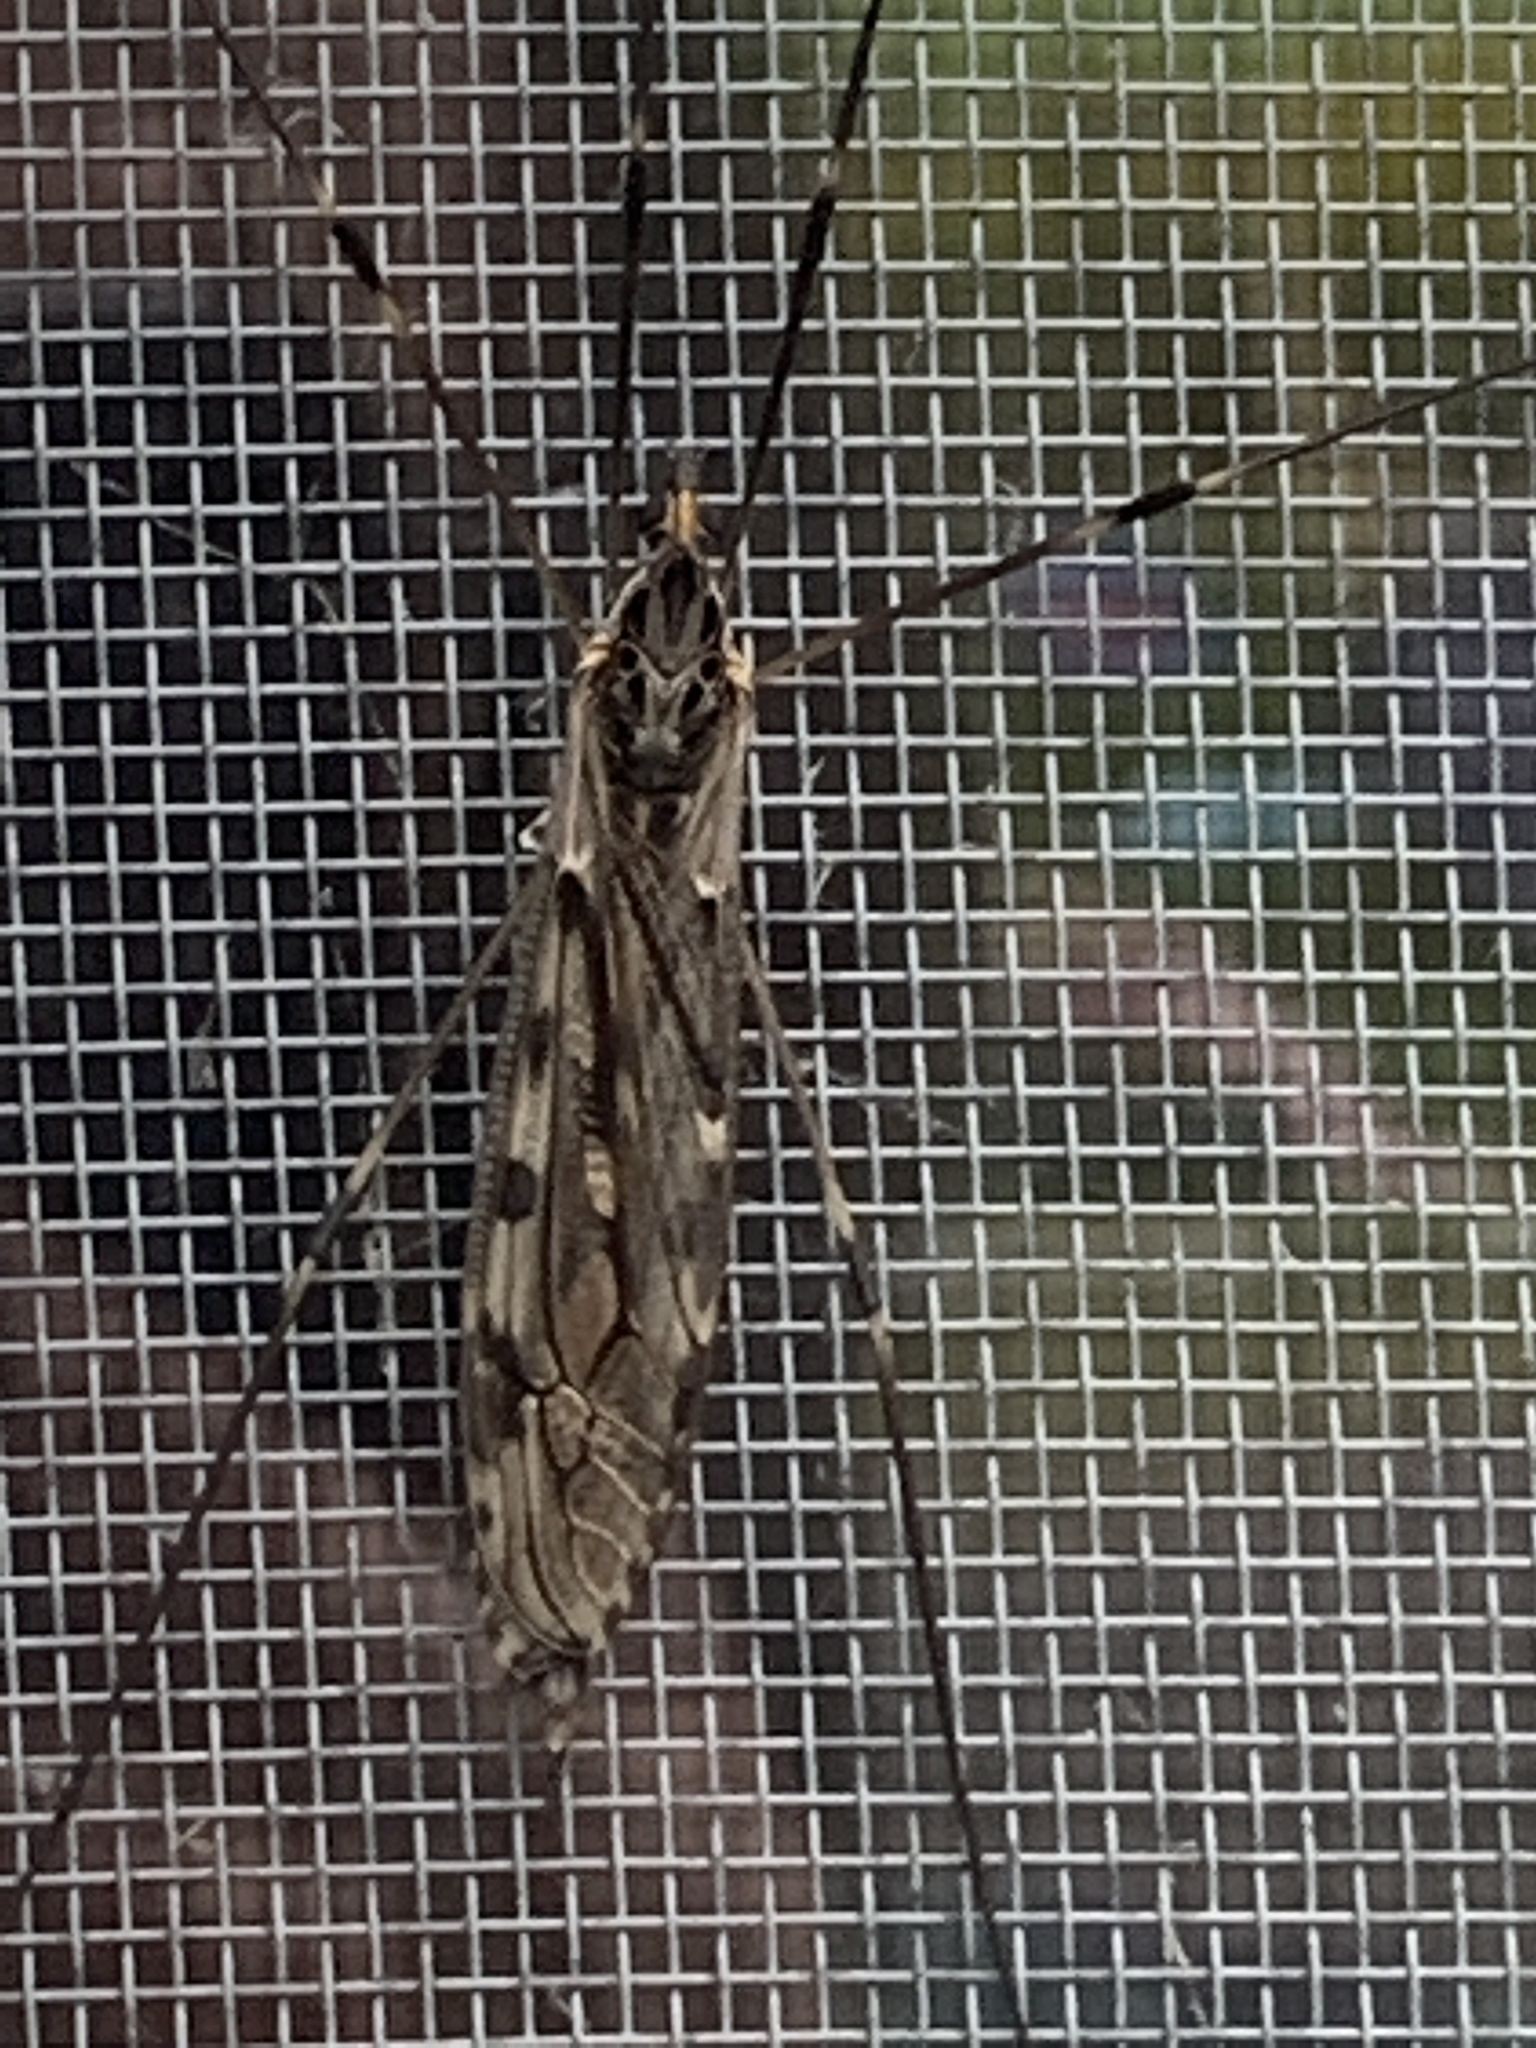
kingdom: Animalia
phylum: Arthropoda
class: Insecta
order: Diptera
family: Tipulidae
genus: Tipula
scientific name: Tipula abdominalis
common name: Giant crane fly
